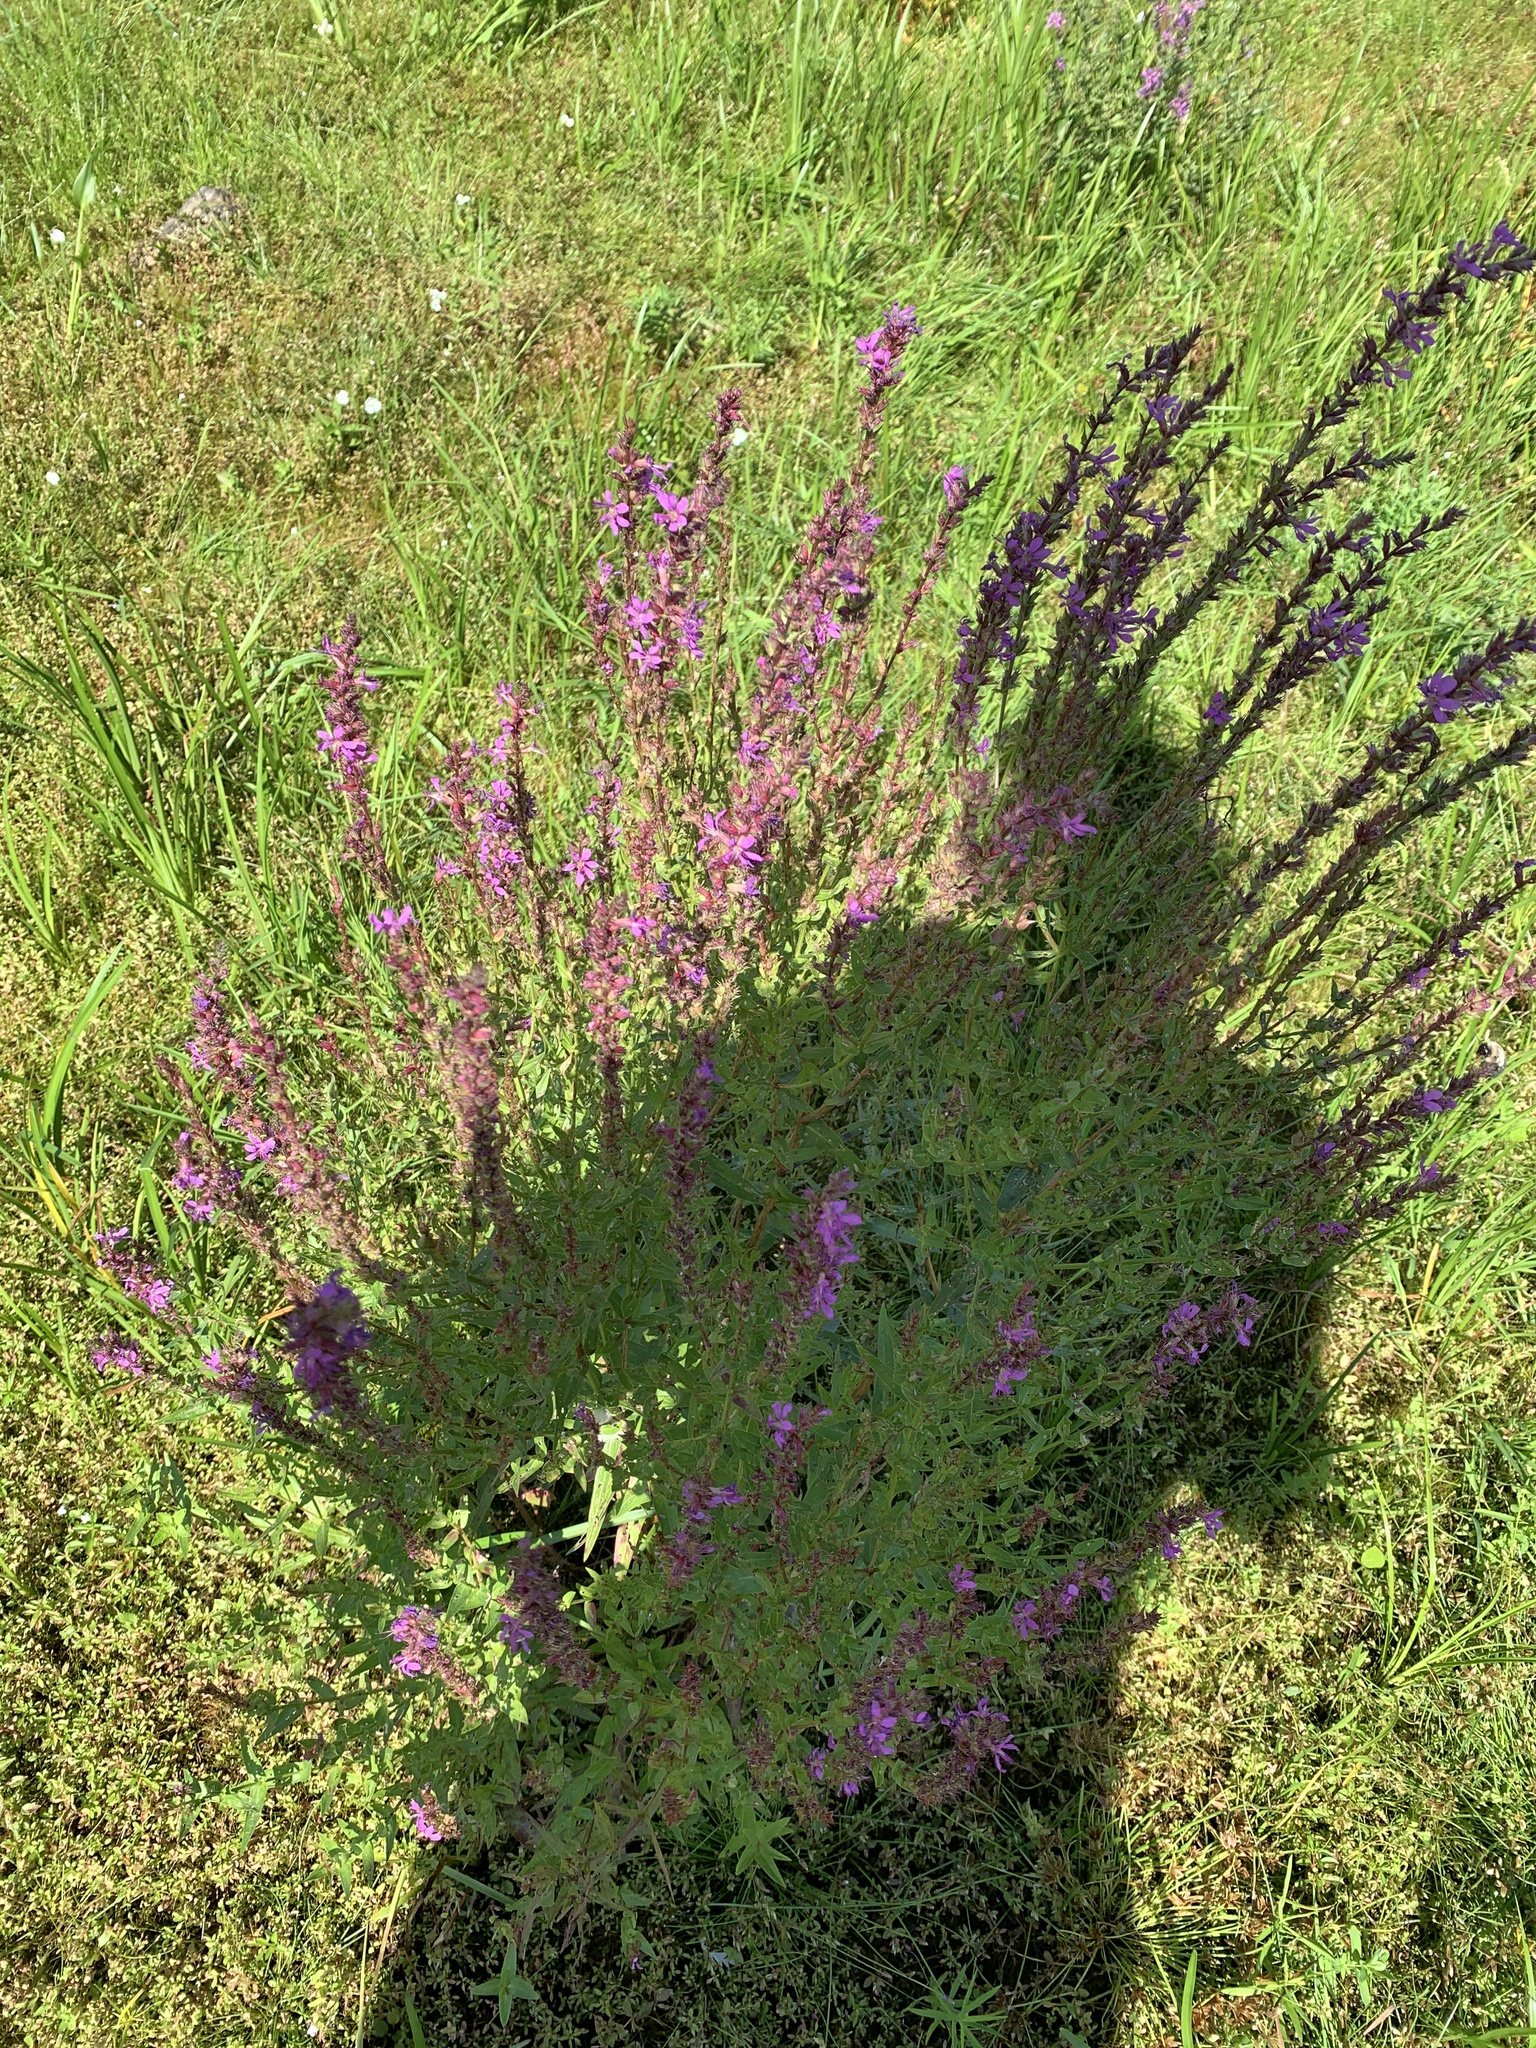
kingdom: Plantae
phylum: Tracheophyta
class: Magnoliopsida
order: Myrtales
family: Lythraceae
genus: Lythrum
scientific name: Lythrum salicaria
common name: Purple loosestrife
